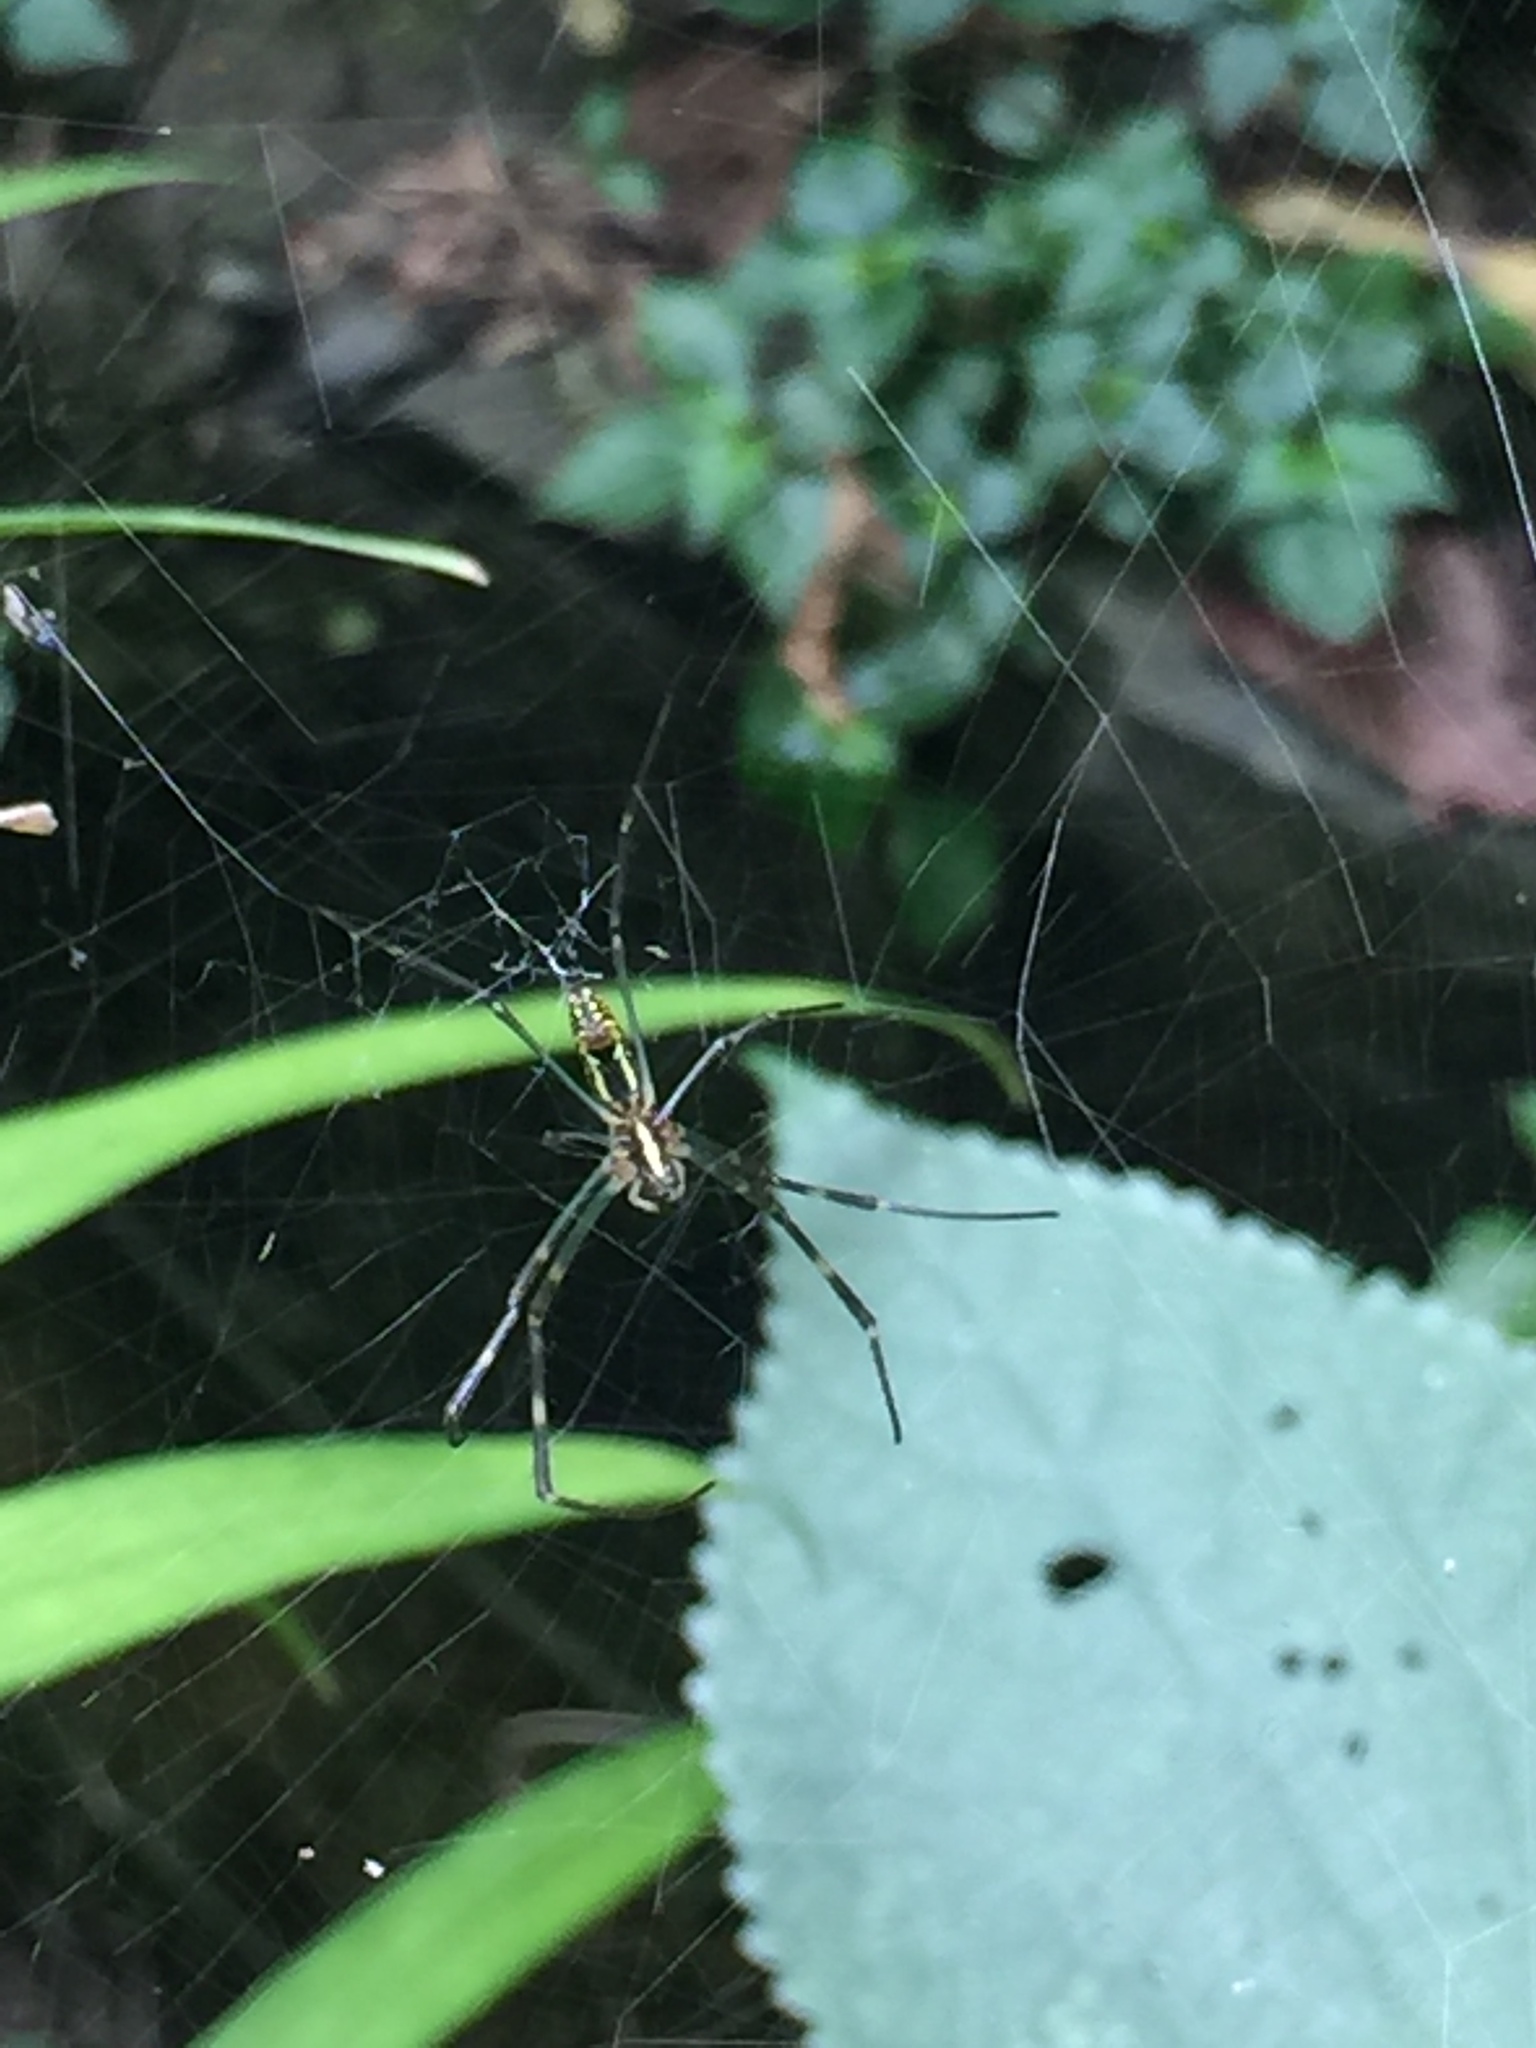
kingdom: Animalia
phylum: Arthropoda
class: Arachnida
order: Araneae
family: Araneidae
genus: Trichonephila
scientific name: Trichonephila clavata
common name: Jorō spider
